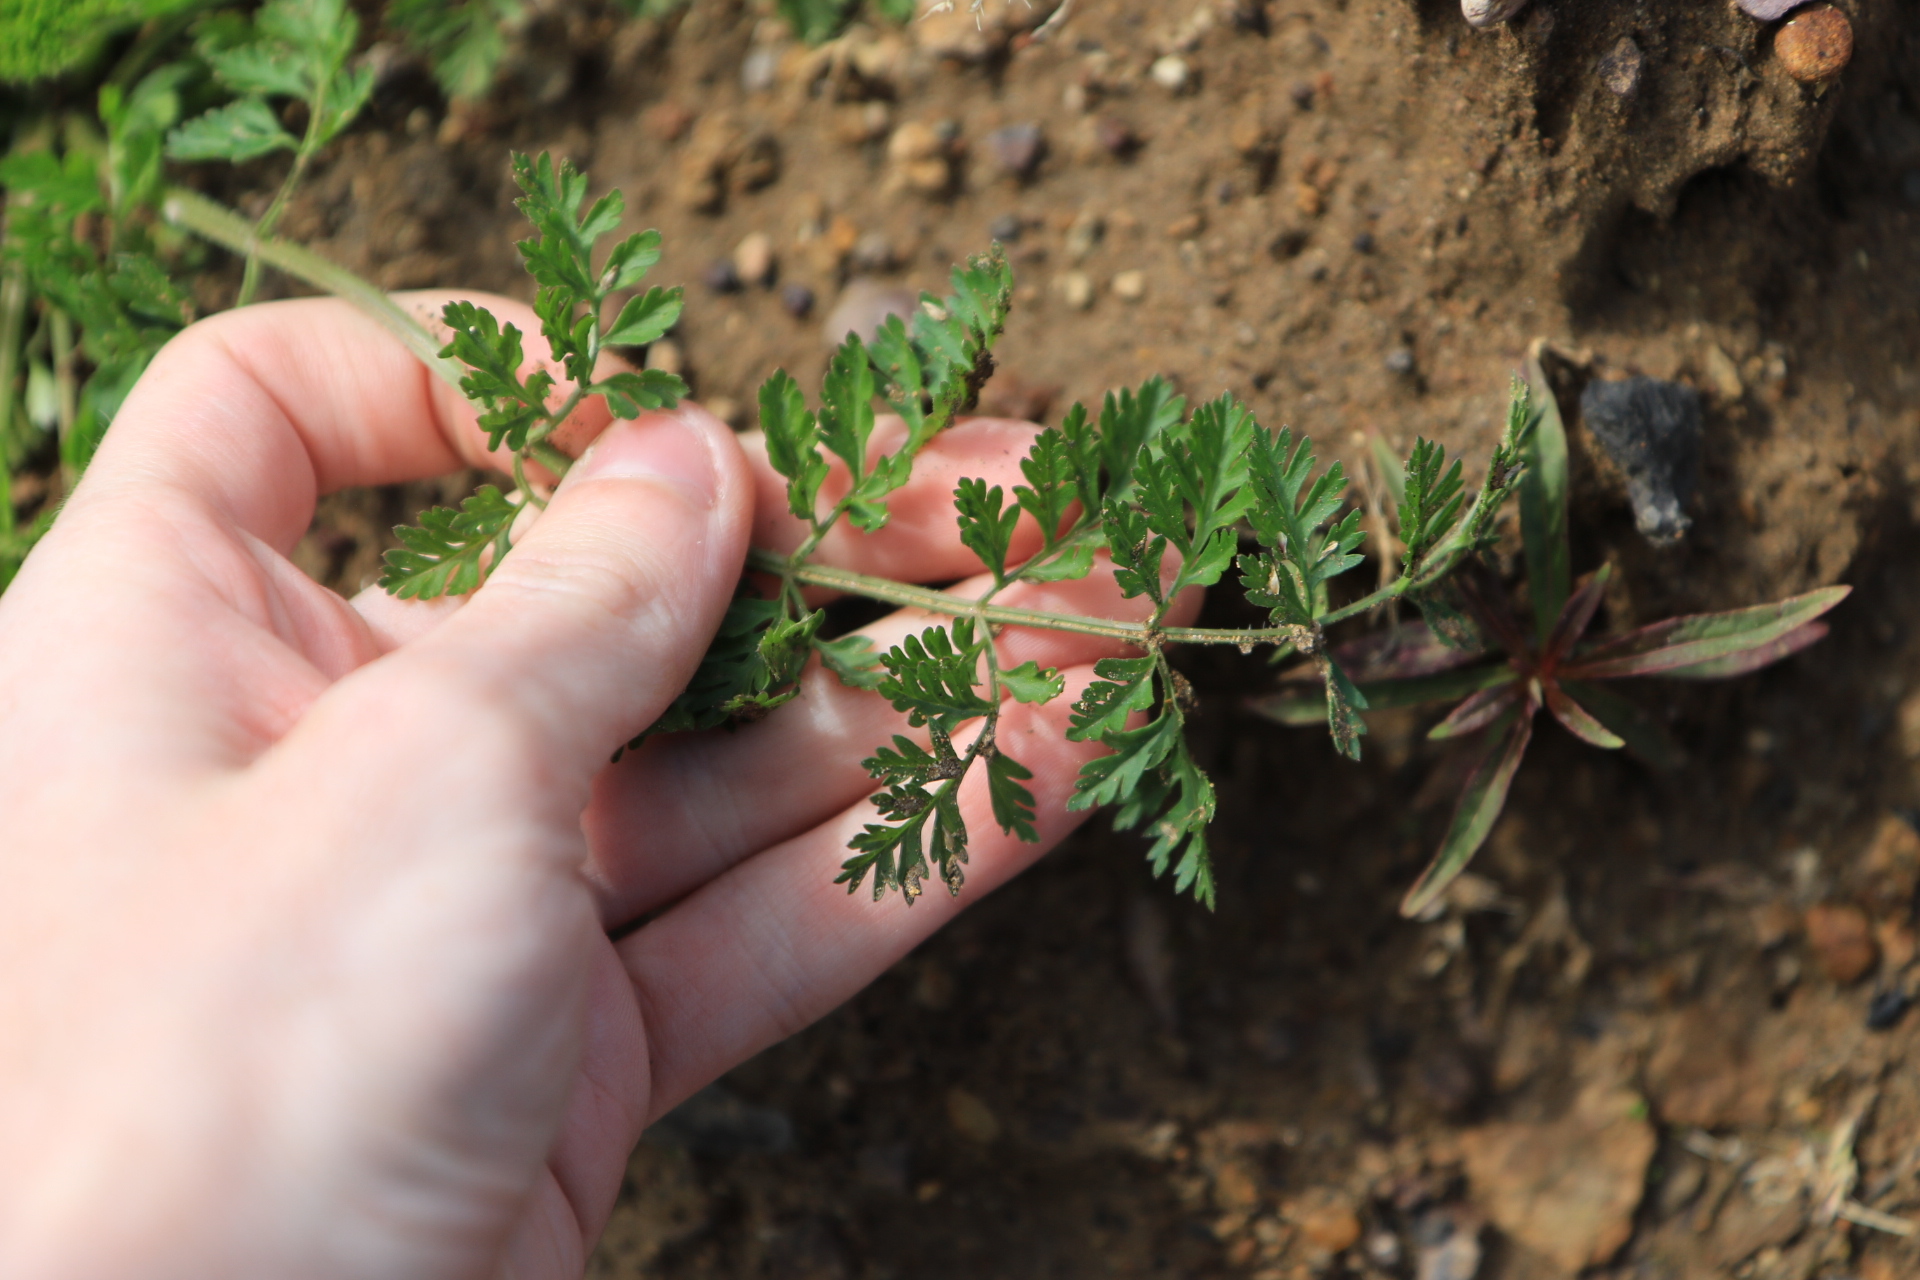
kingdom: Plantae
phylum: Tracheophyta
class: Magnoliopsida
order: Apiales
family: Apiaceae
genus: Daucus
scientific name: Daucus carota
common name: Wild carrot
